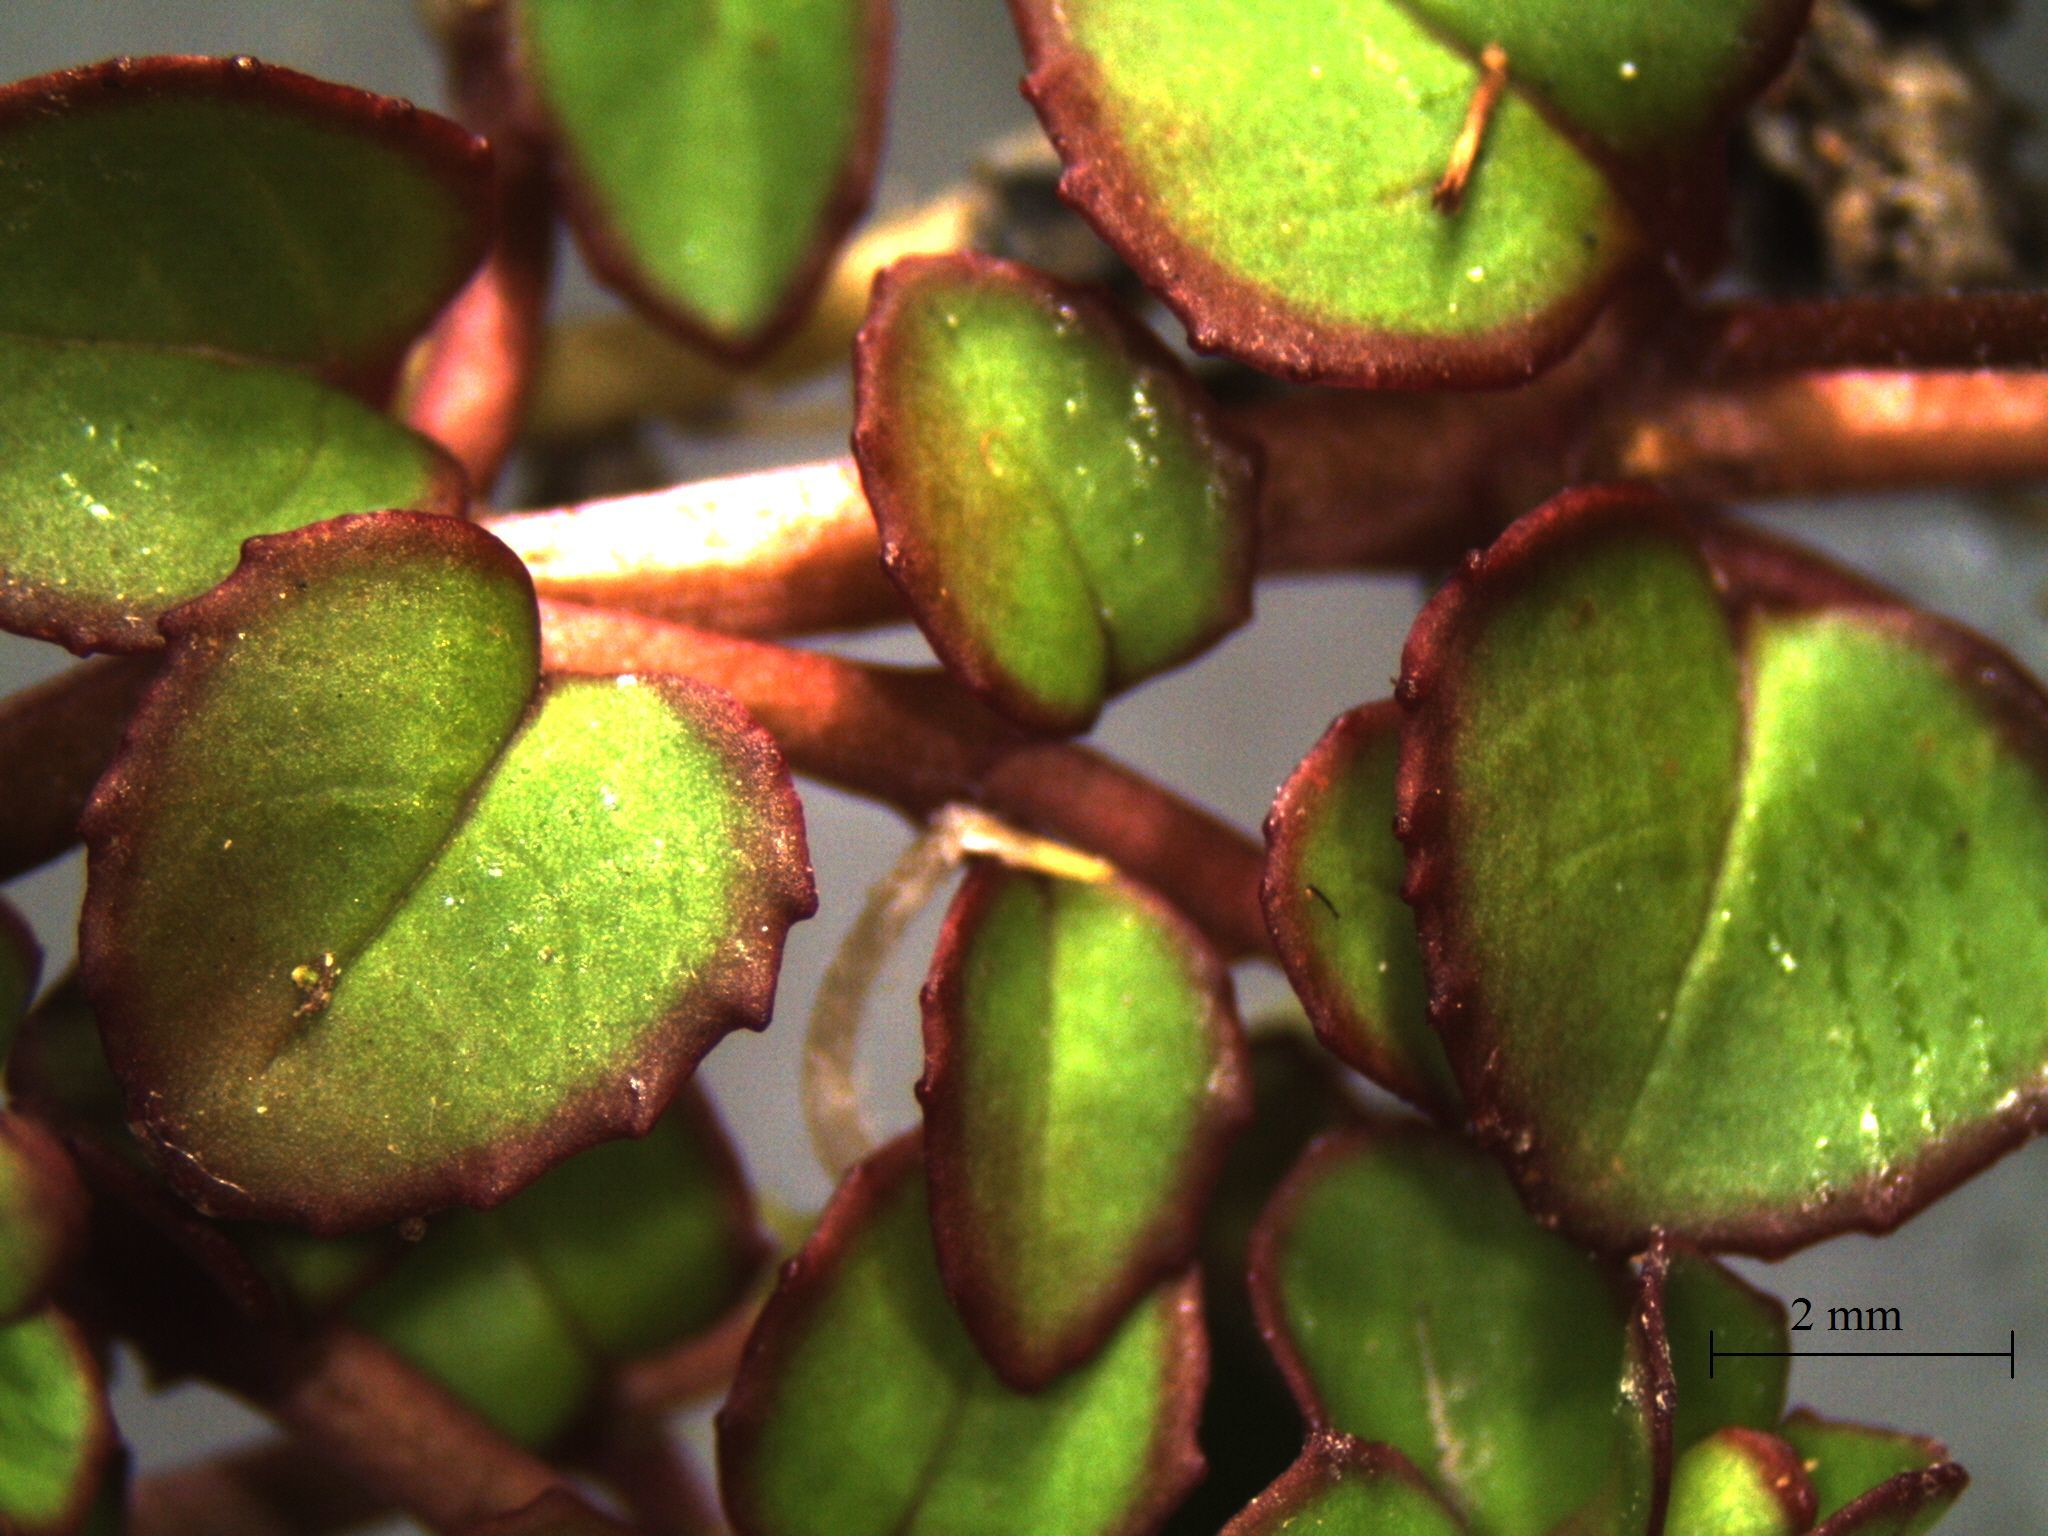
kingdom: Plantae
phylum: Tracheophyta
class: Magnoliopsida
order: Myrtales
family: Onagraceae
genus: Epilobium
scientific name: Epilobium nummularifolium
